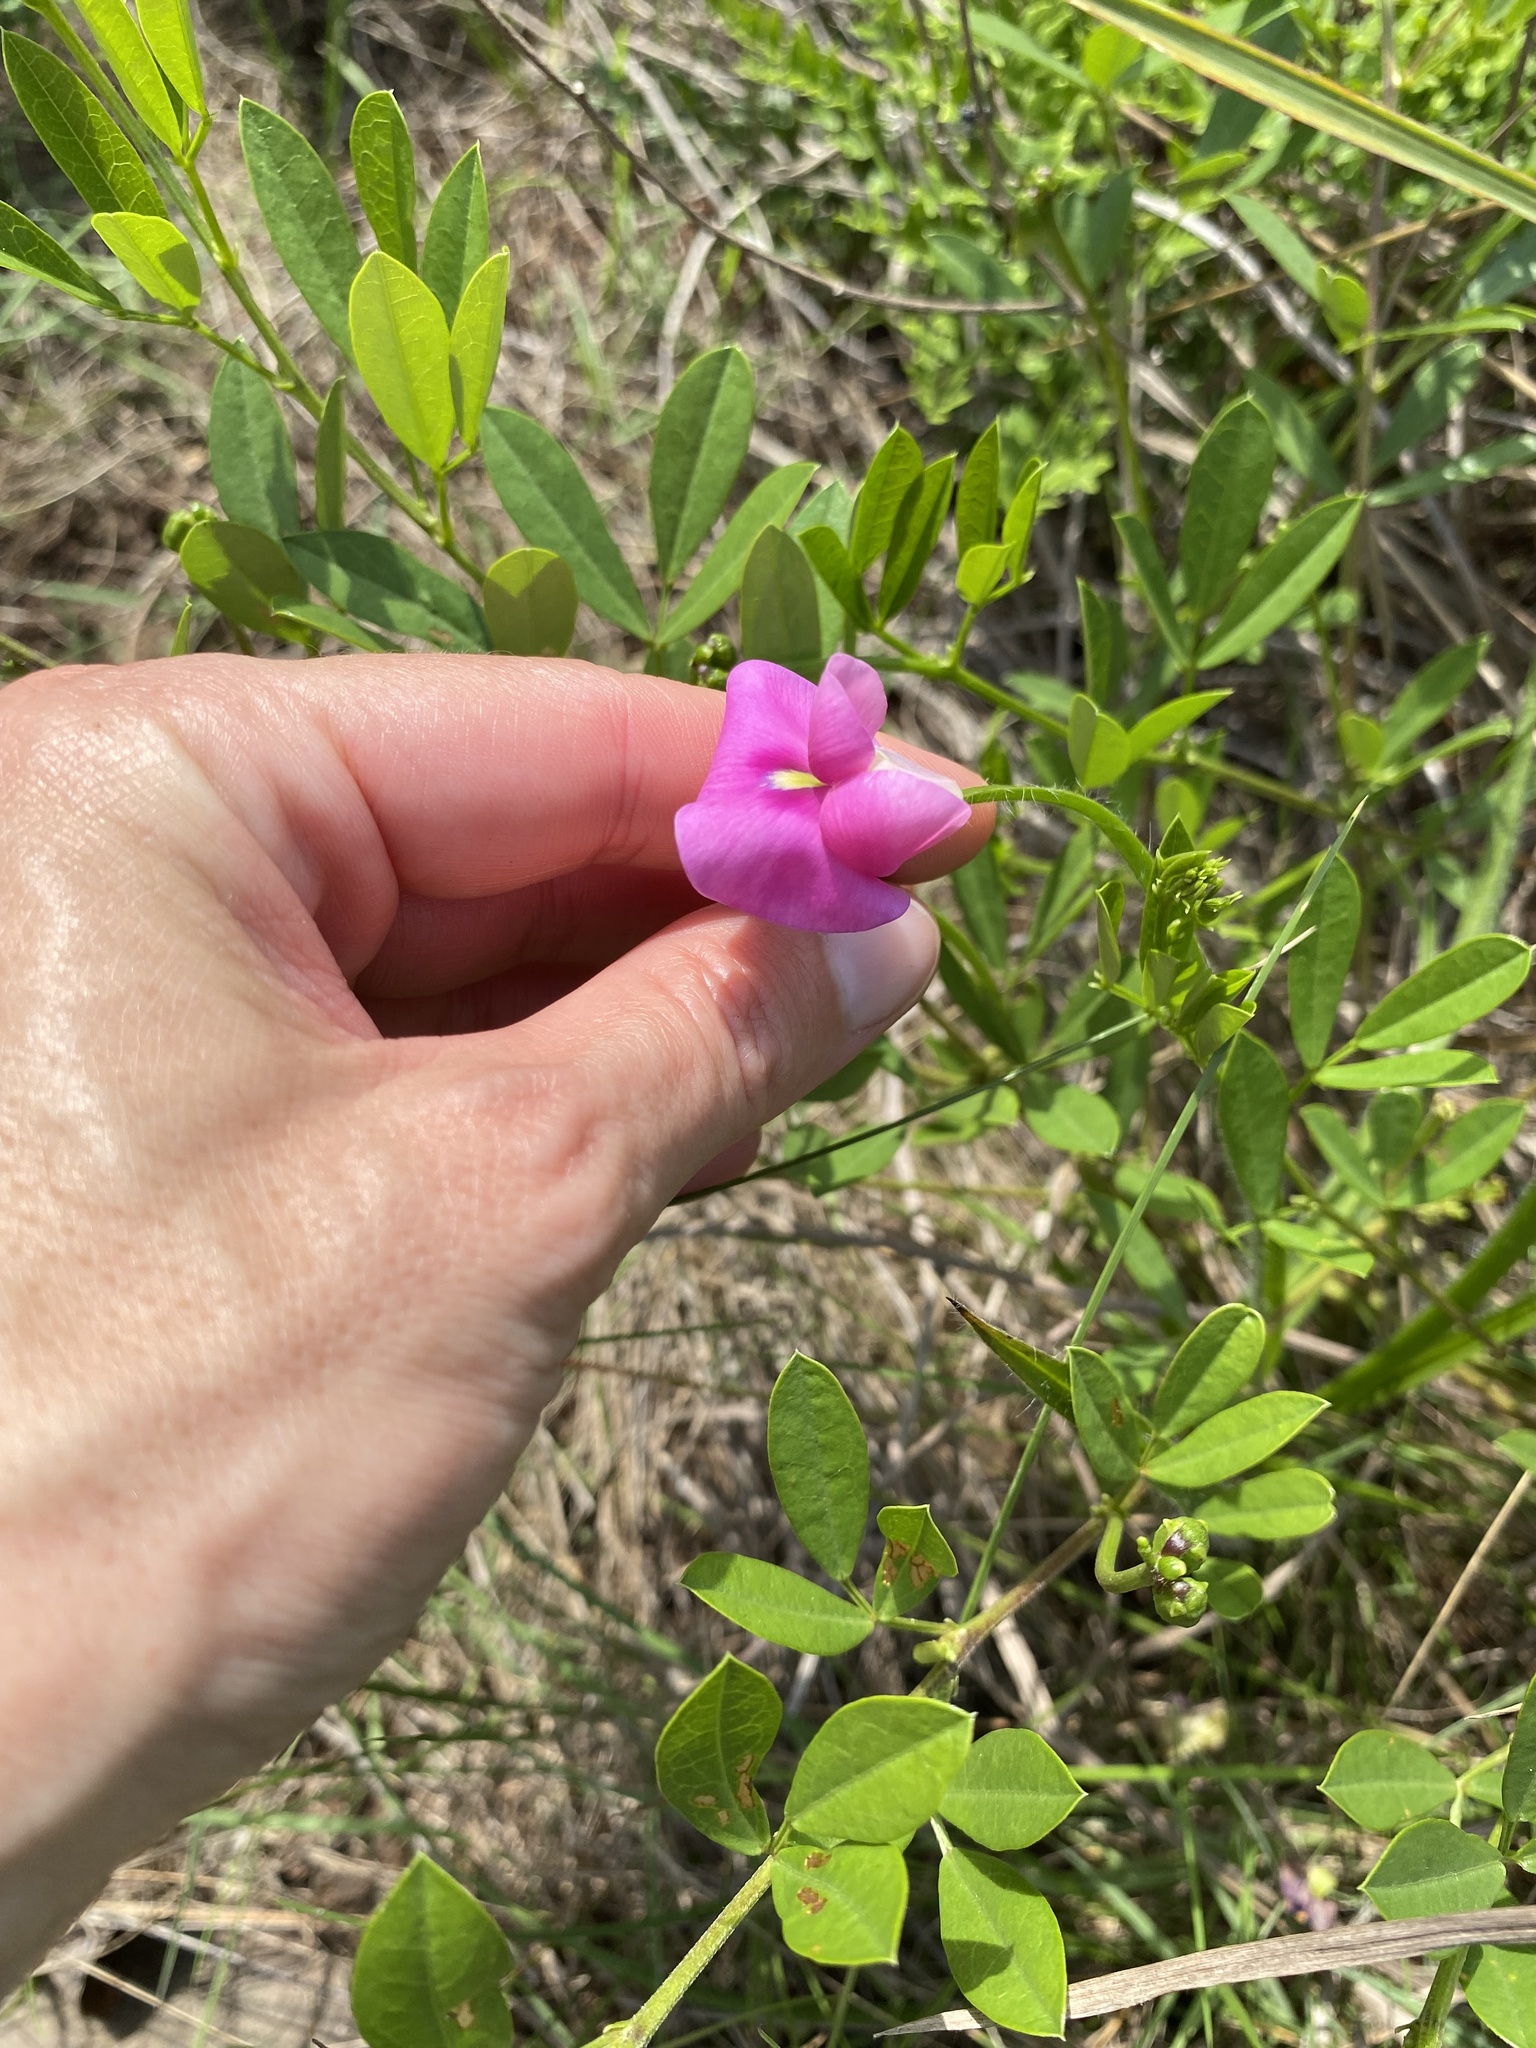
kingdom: Plantae
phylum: Tracheophyta
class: Magnoliopsida
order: Fabales
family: Fabaceae
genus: Sphenostylis
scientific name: Sphenostylis angustifolia
